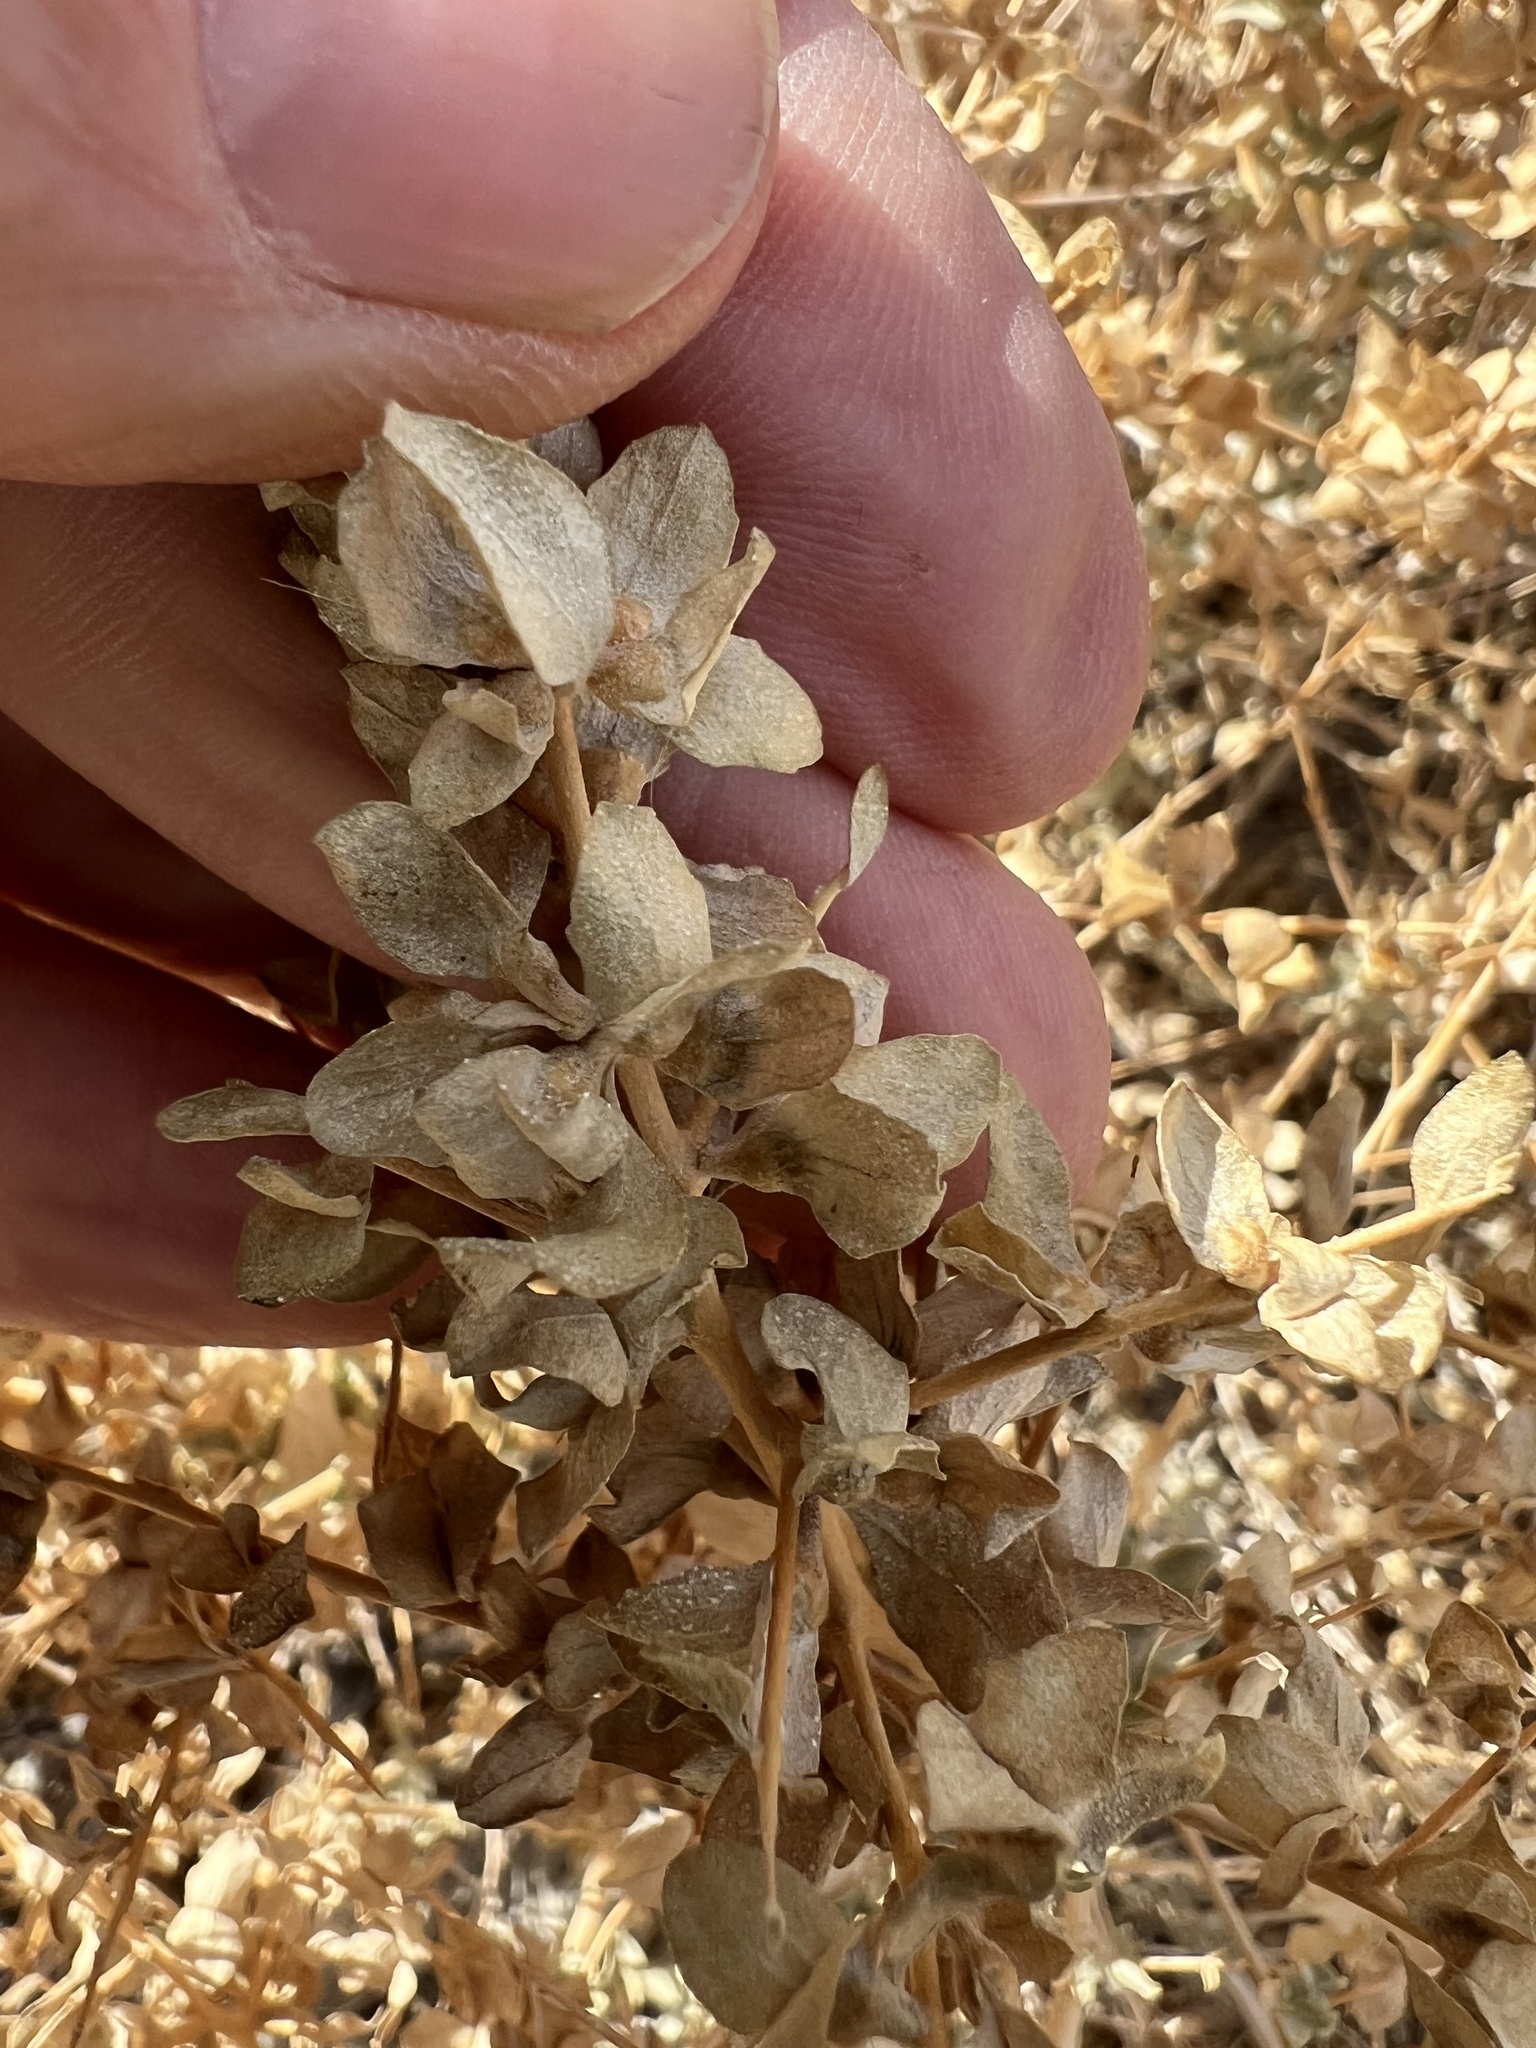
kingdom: Plantae
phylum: Tracheophyta
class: Magnoliopsida
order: Caryophyllales
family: Amaranthaceae
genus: Atriplex
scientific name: Atriplex confertifolia
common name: Shadscale
